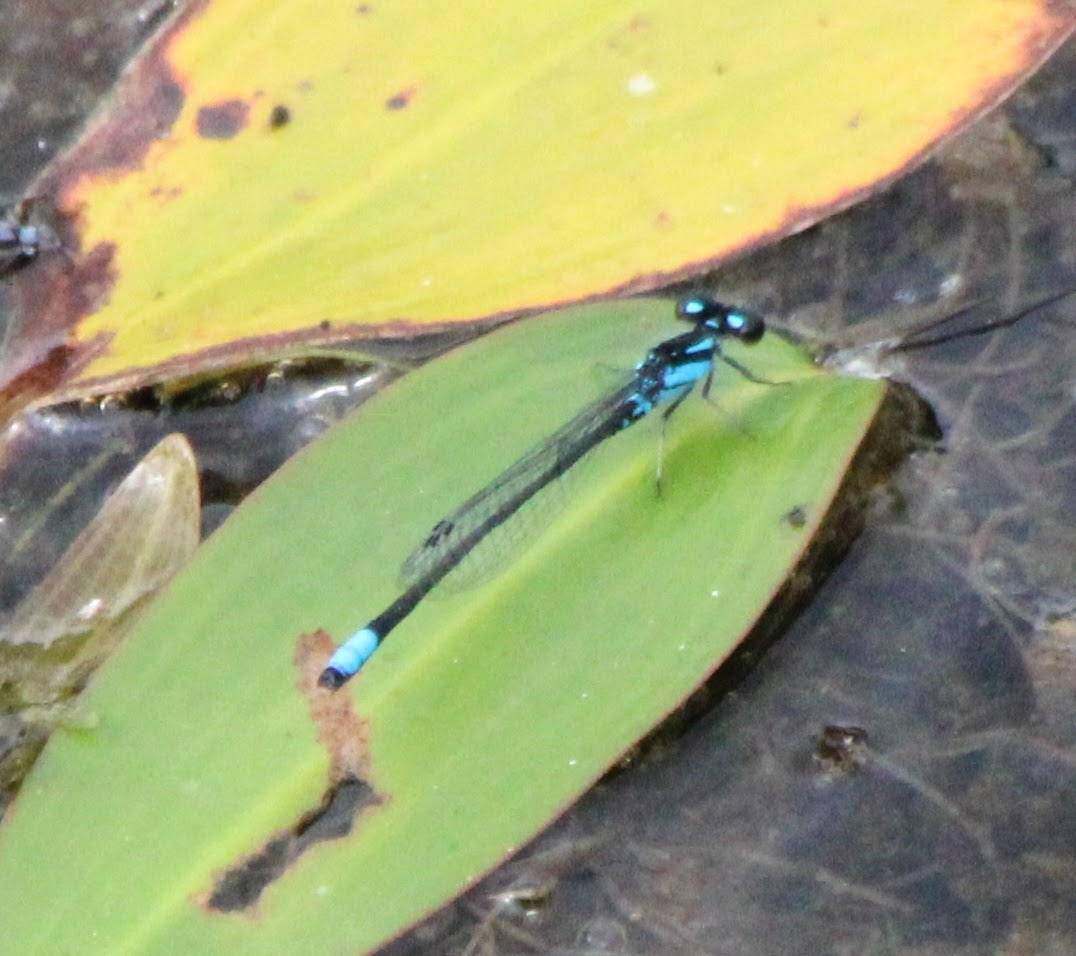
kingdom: Animalia
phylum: Arthropoda
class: Insecta
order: Odonata
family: Coenagrionidae
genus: Enallagma
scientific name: Enallagma geminatum
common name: Skimming bluet
